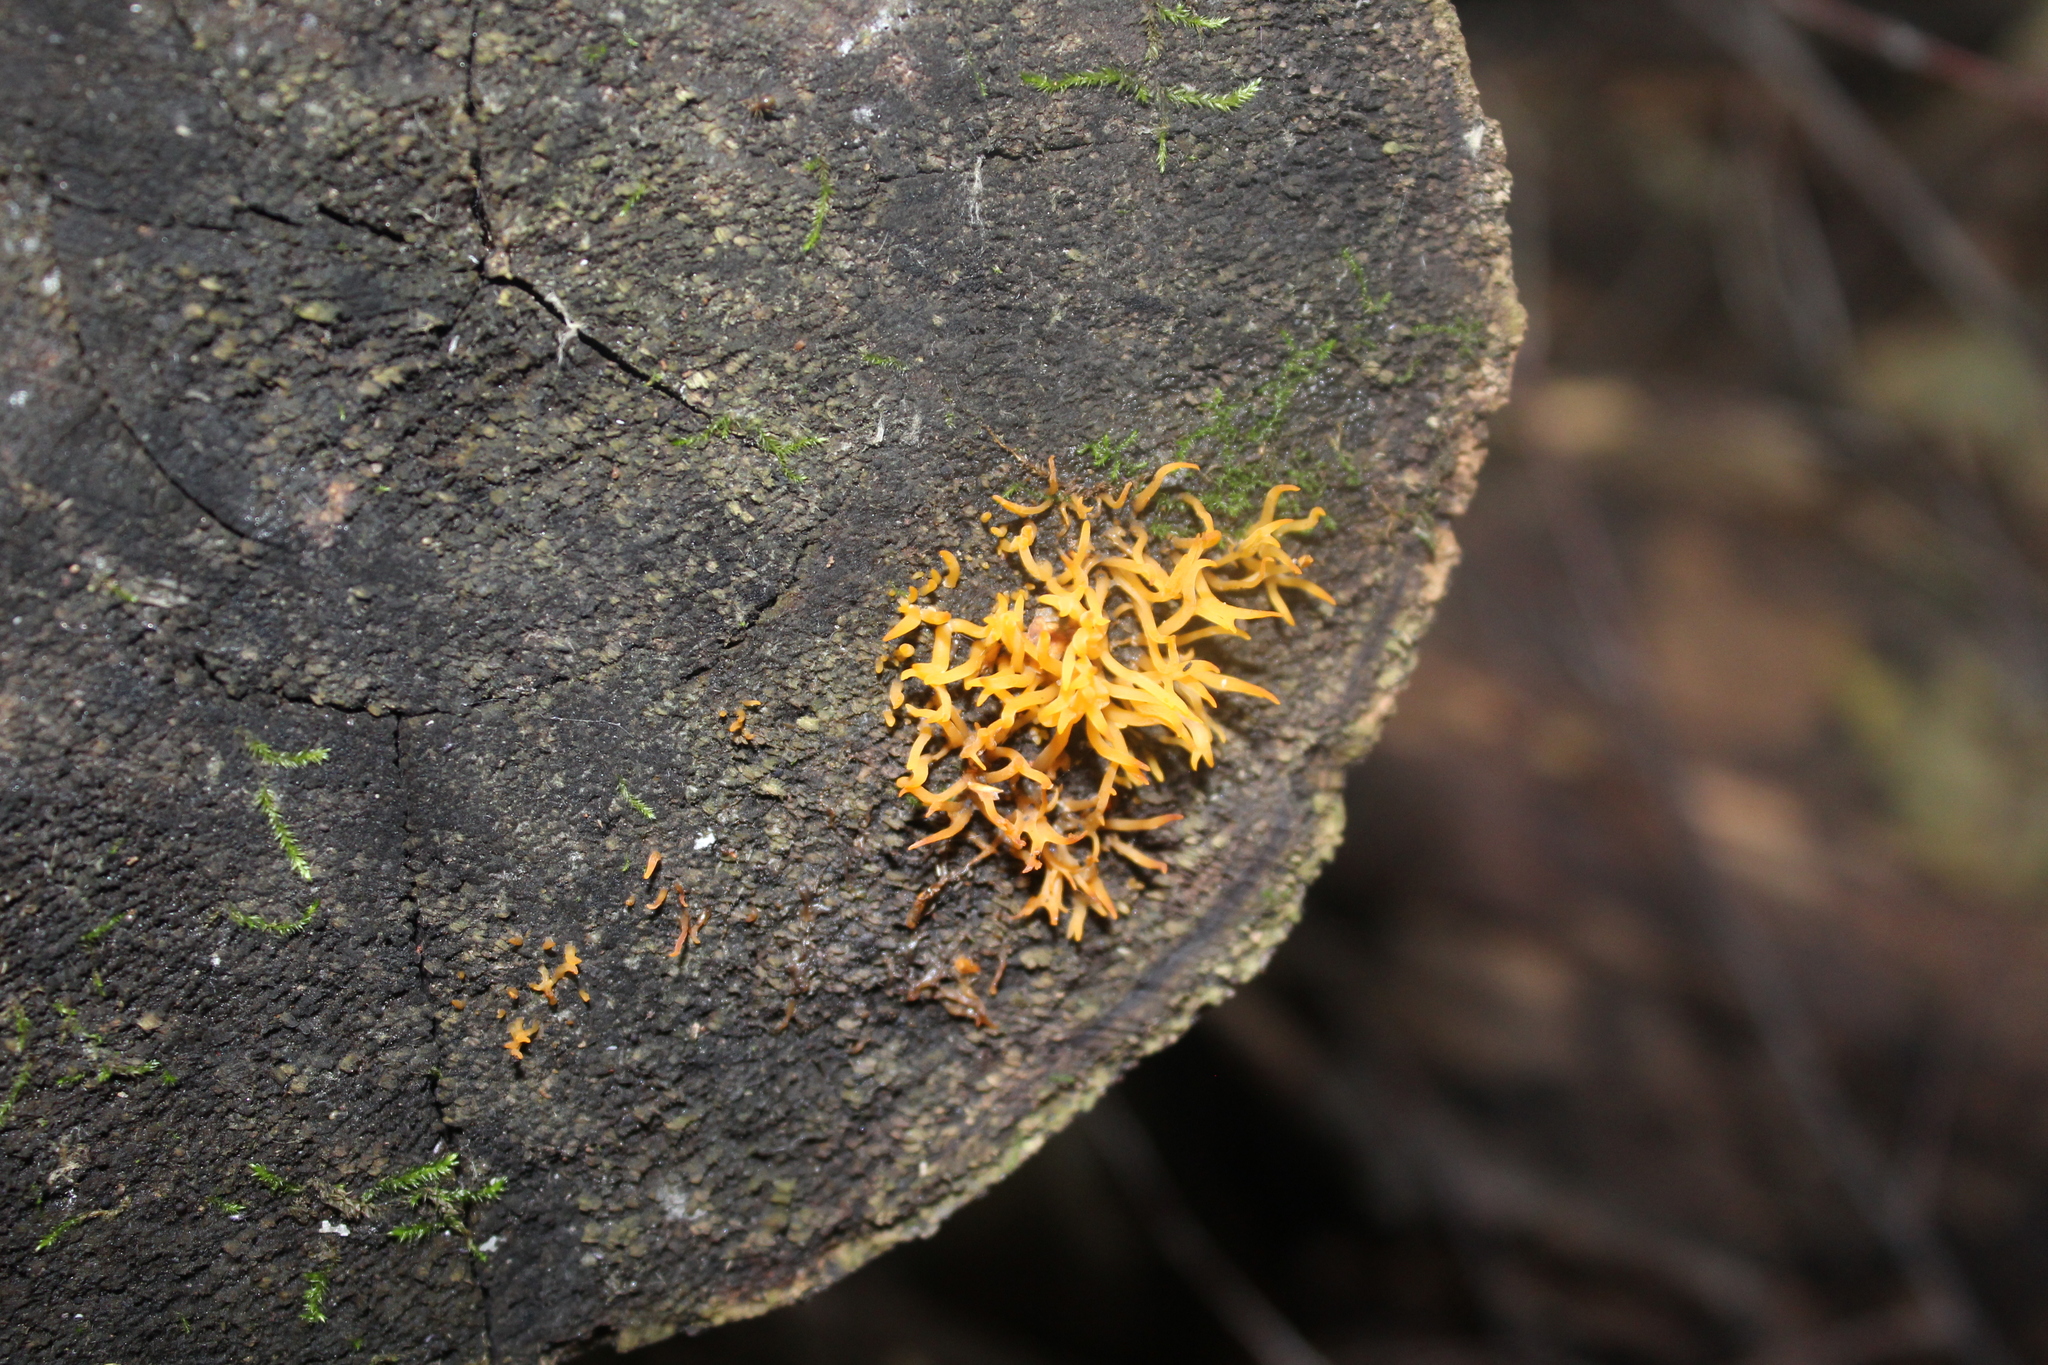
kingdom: Fungi
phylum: Basidiomycota
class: Dacrymycetes
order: Dacrymycetales
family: Dacrymycetaceae
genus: Calocera
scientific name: Calocera cornea
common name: Small stagshorn
